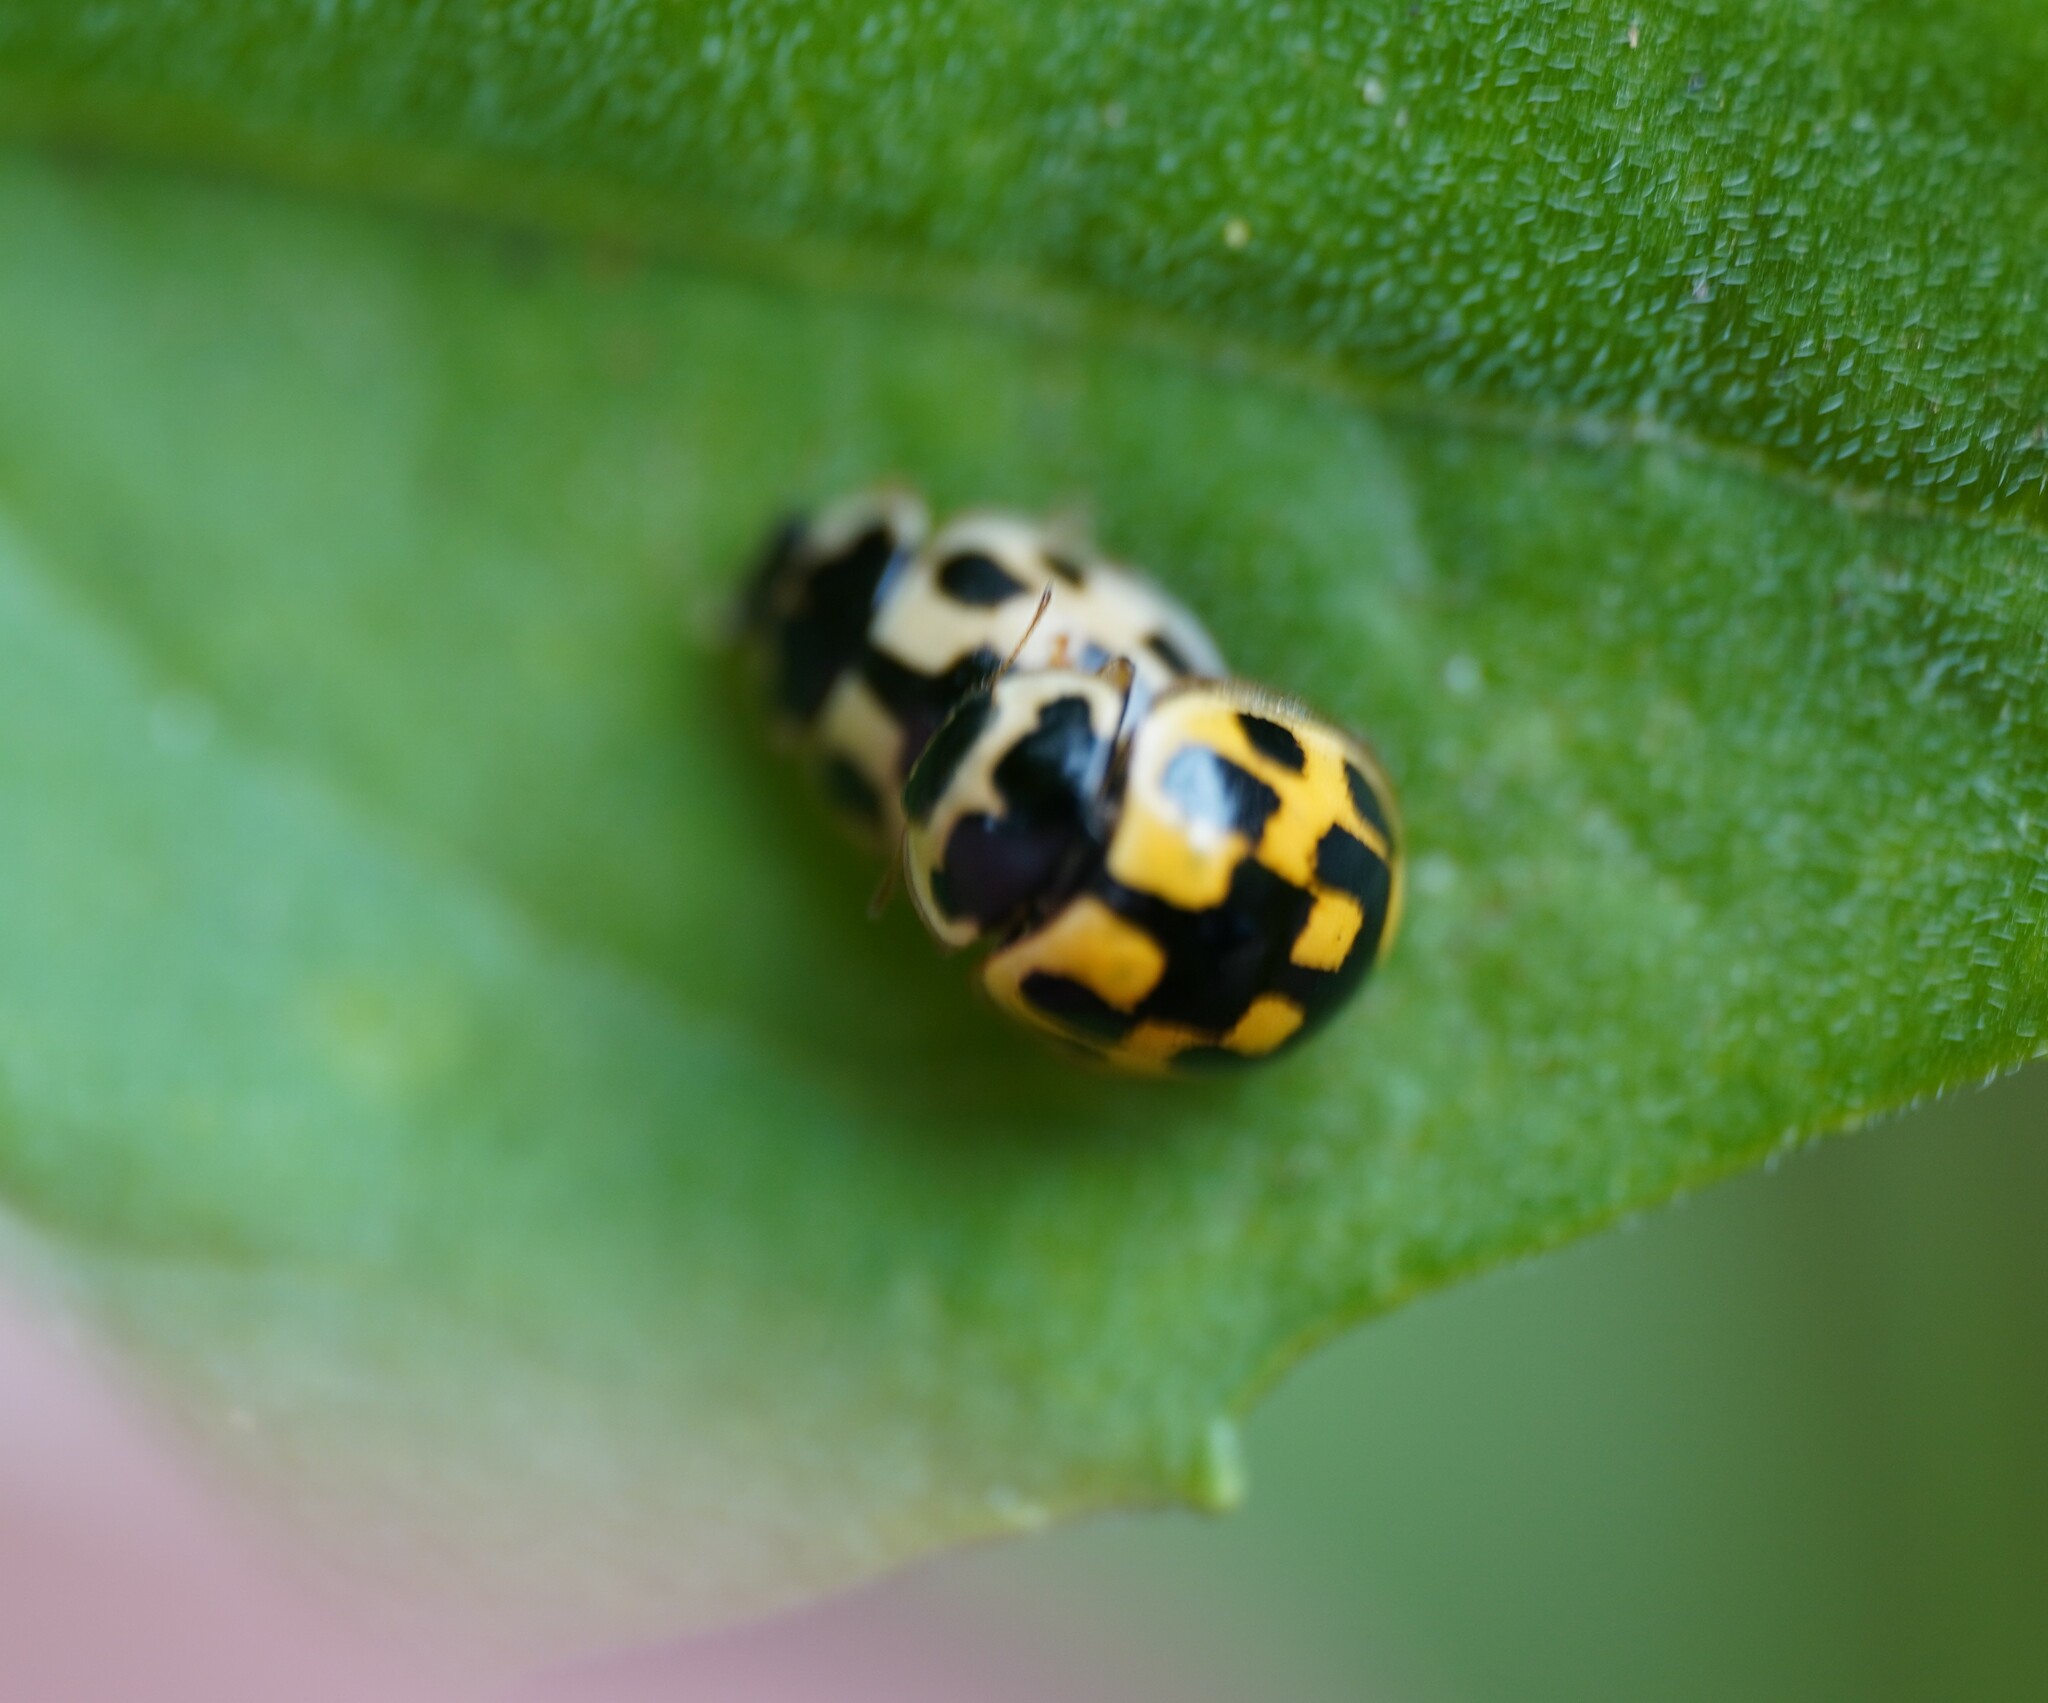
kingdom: Animalia
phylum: Arthropoda
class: Insecta
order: Coleoptera
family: Coccinellidae
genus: Propylaea
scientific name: Propylaea quatuordecimpunctata
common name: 14-spotted ladybird beetle
